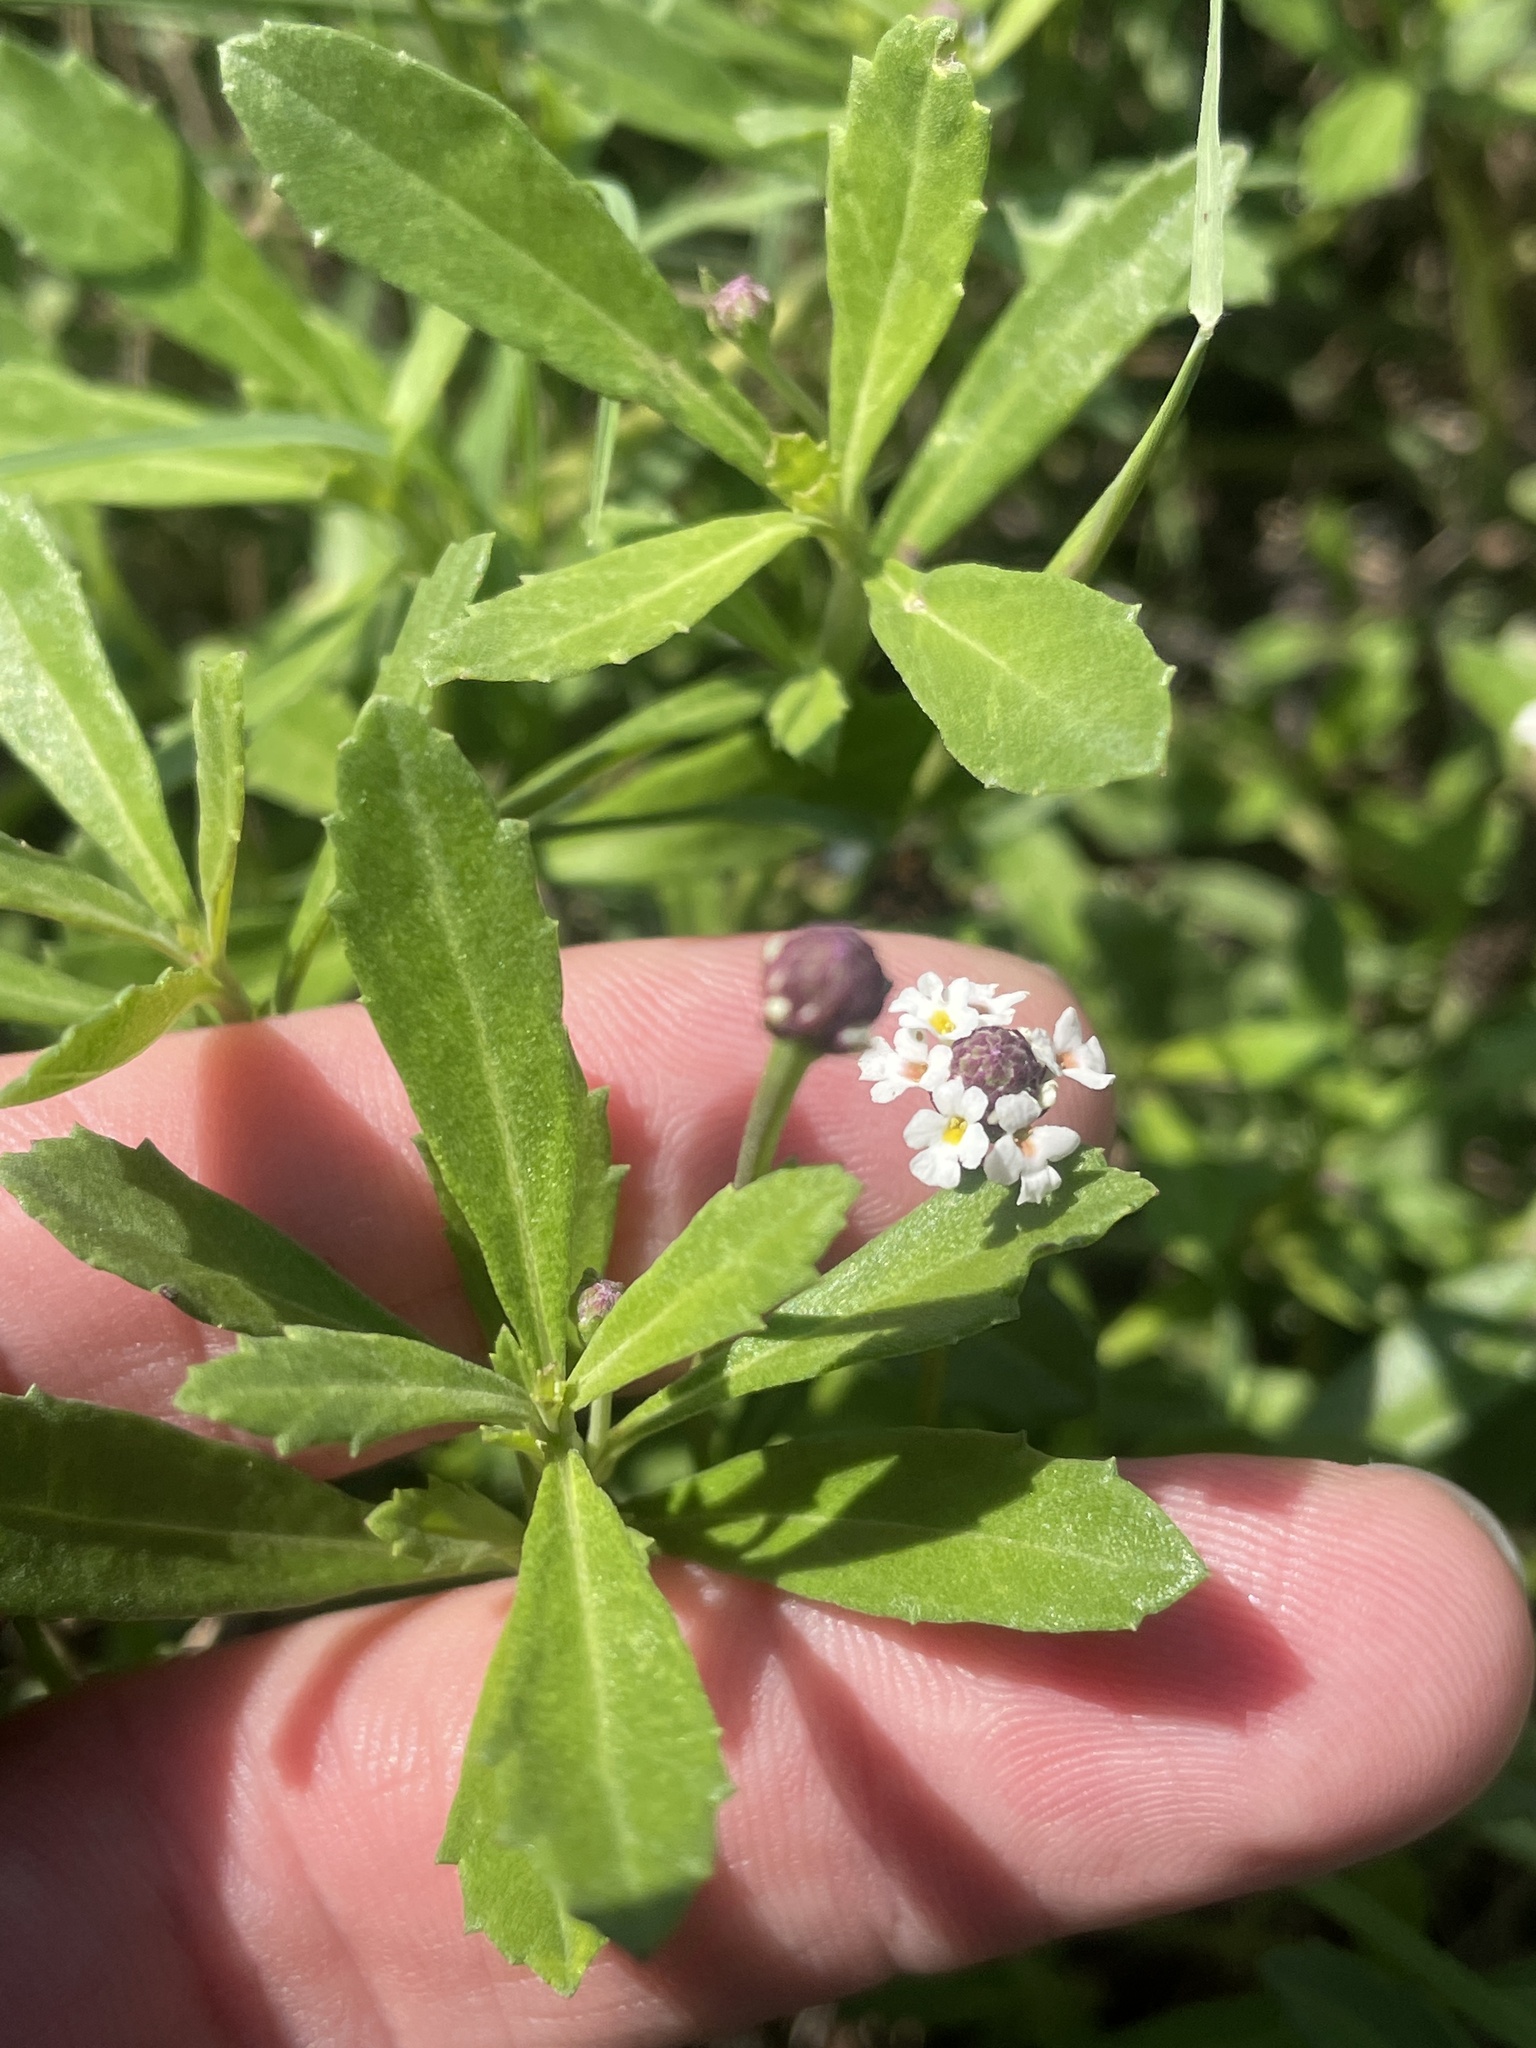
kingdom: Plantae
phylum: Tracheophyta
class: Magnoliopsida
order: Lamiales
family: Verbenaceae
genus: Phyla
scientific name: Phyla nodiflora
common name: Frogfruit
